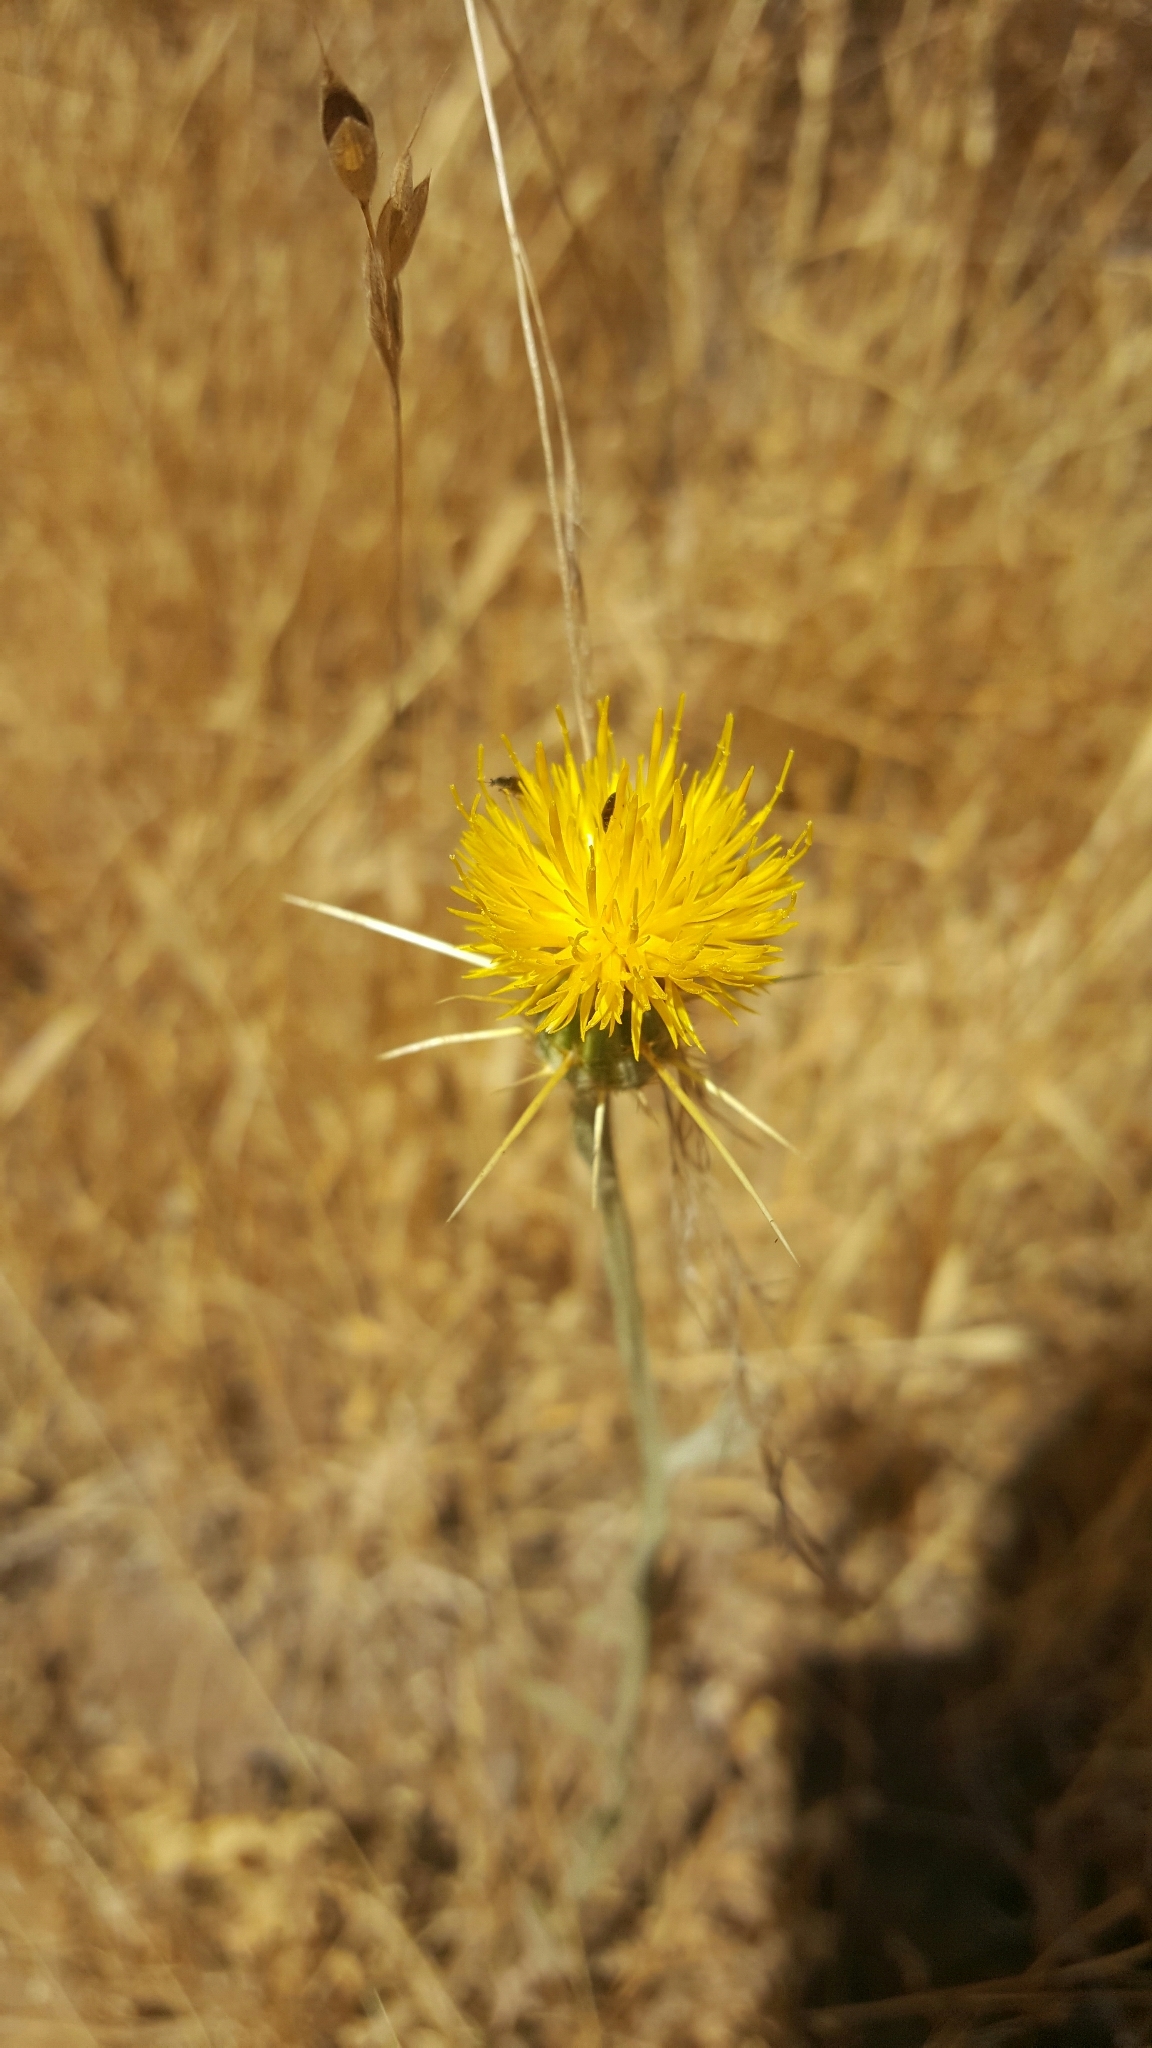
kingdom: Plantae
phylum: Tracheophyta
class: Magnoliopsida
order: Asterales
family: Asteraceae
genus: Centaurea
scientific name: Centaurea solstitialis
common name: Yellow star-thistle
